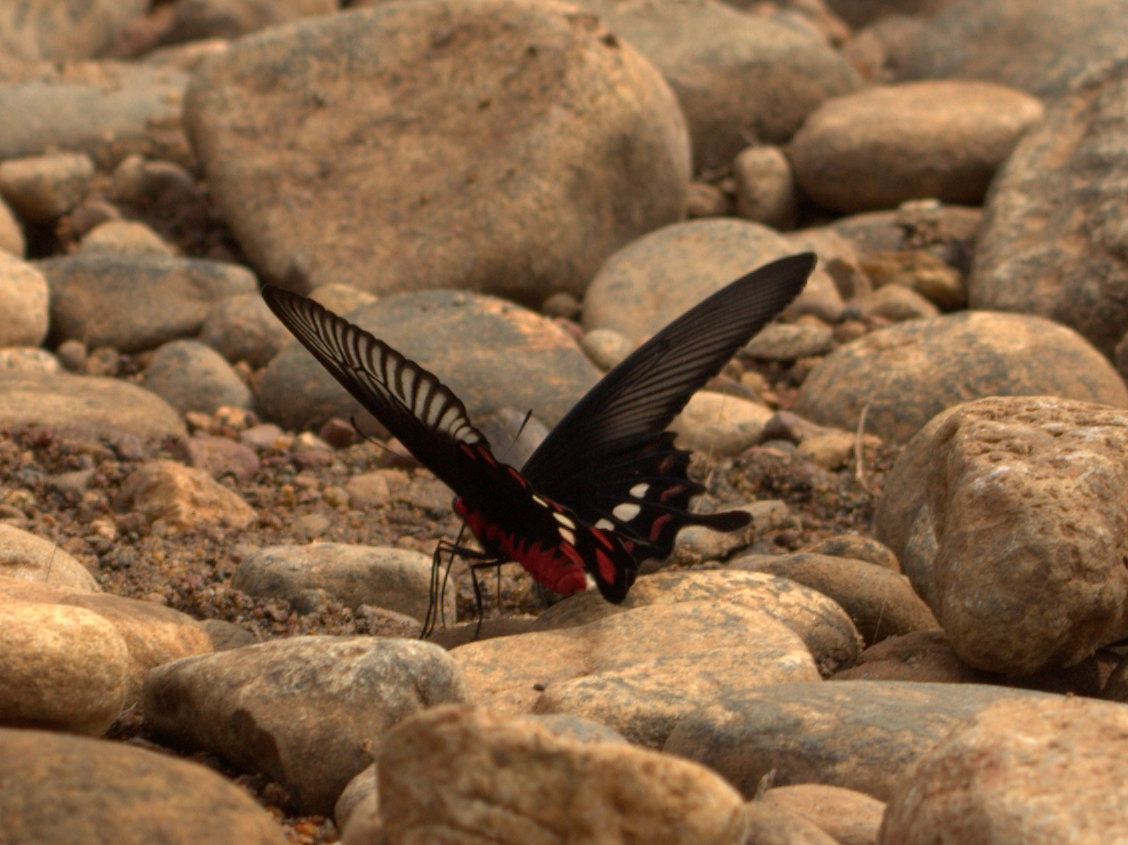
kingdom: Animalia
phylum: Arthropoda
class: Insecta
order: Lepidoptera
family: Papilionidae
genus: Pachliopta
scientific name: Pachliopta aristolochiae
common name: Common rose
